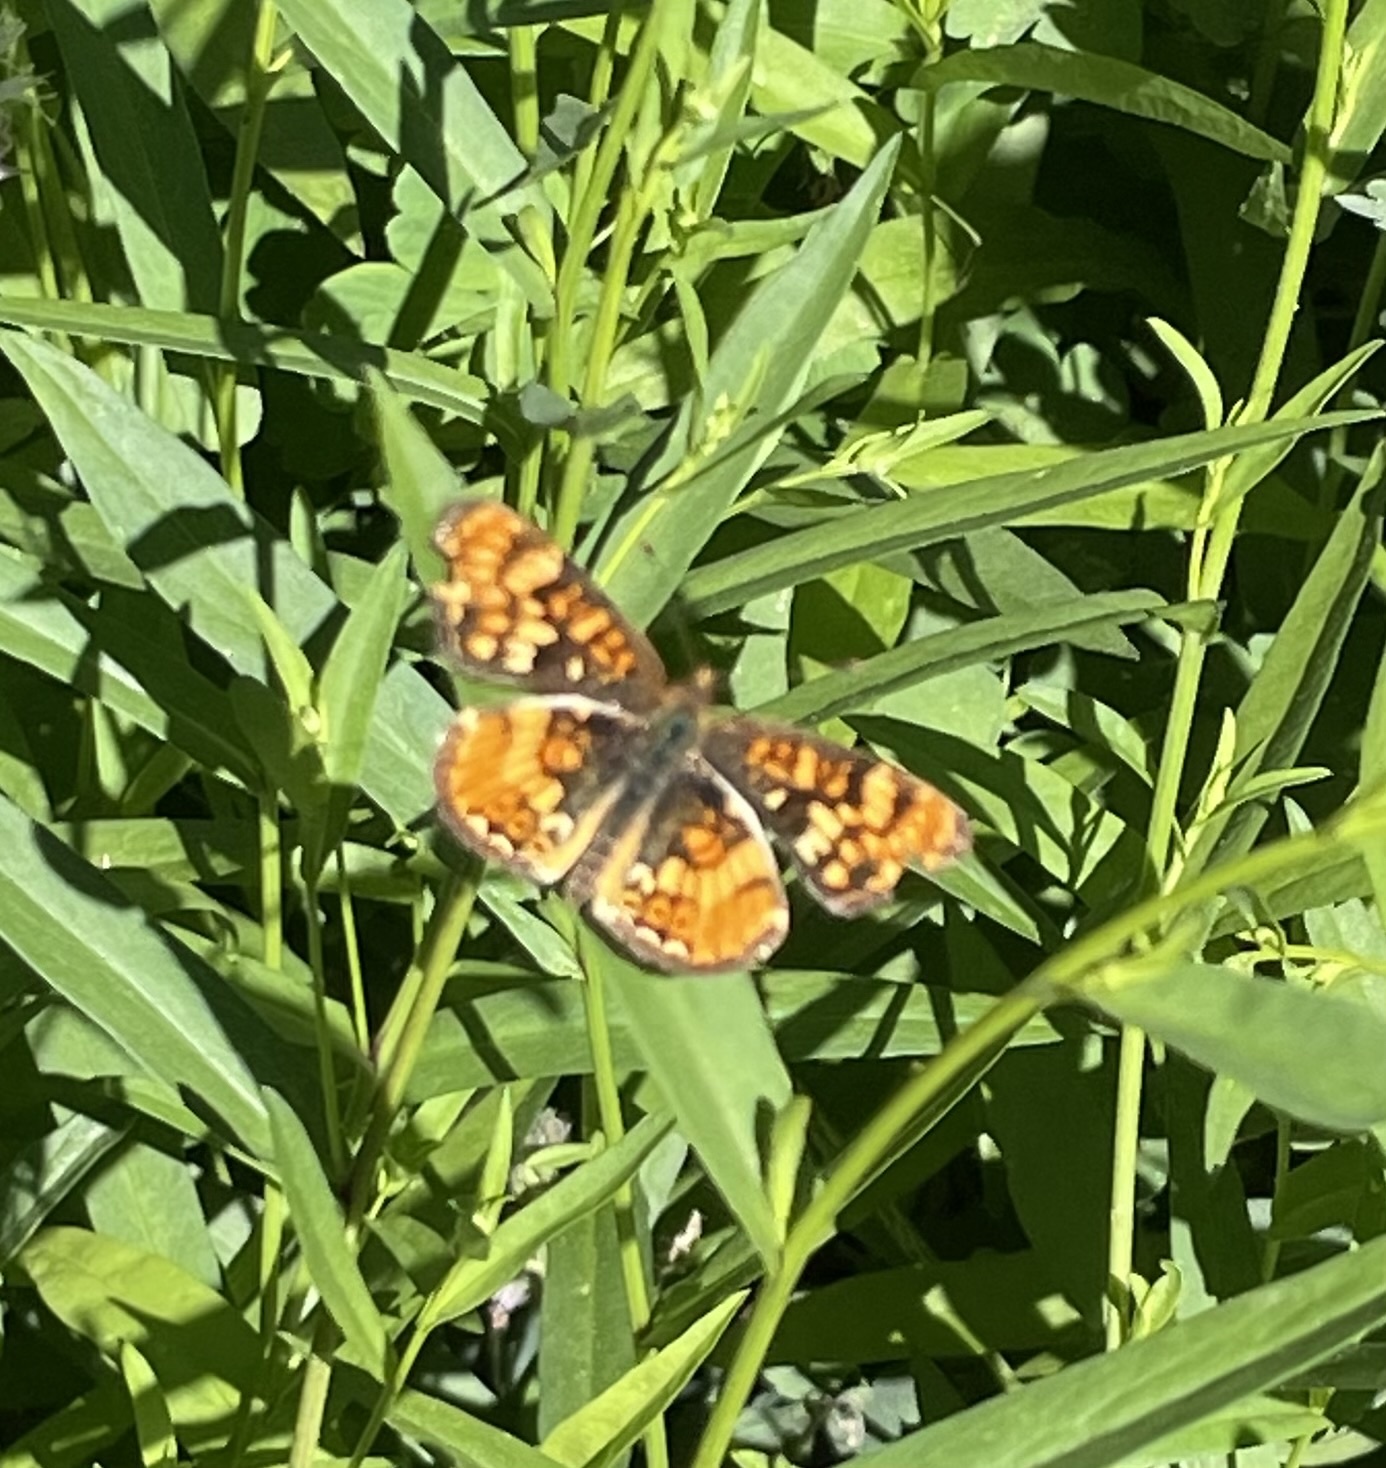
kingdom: Animalia
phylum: Arthropoda
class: Insecta
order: Lepidoptera
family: Nymphalidae
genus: Phyciodes
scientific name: Phyciodes tharos
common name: Pearl crescent
